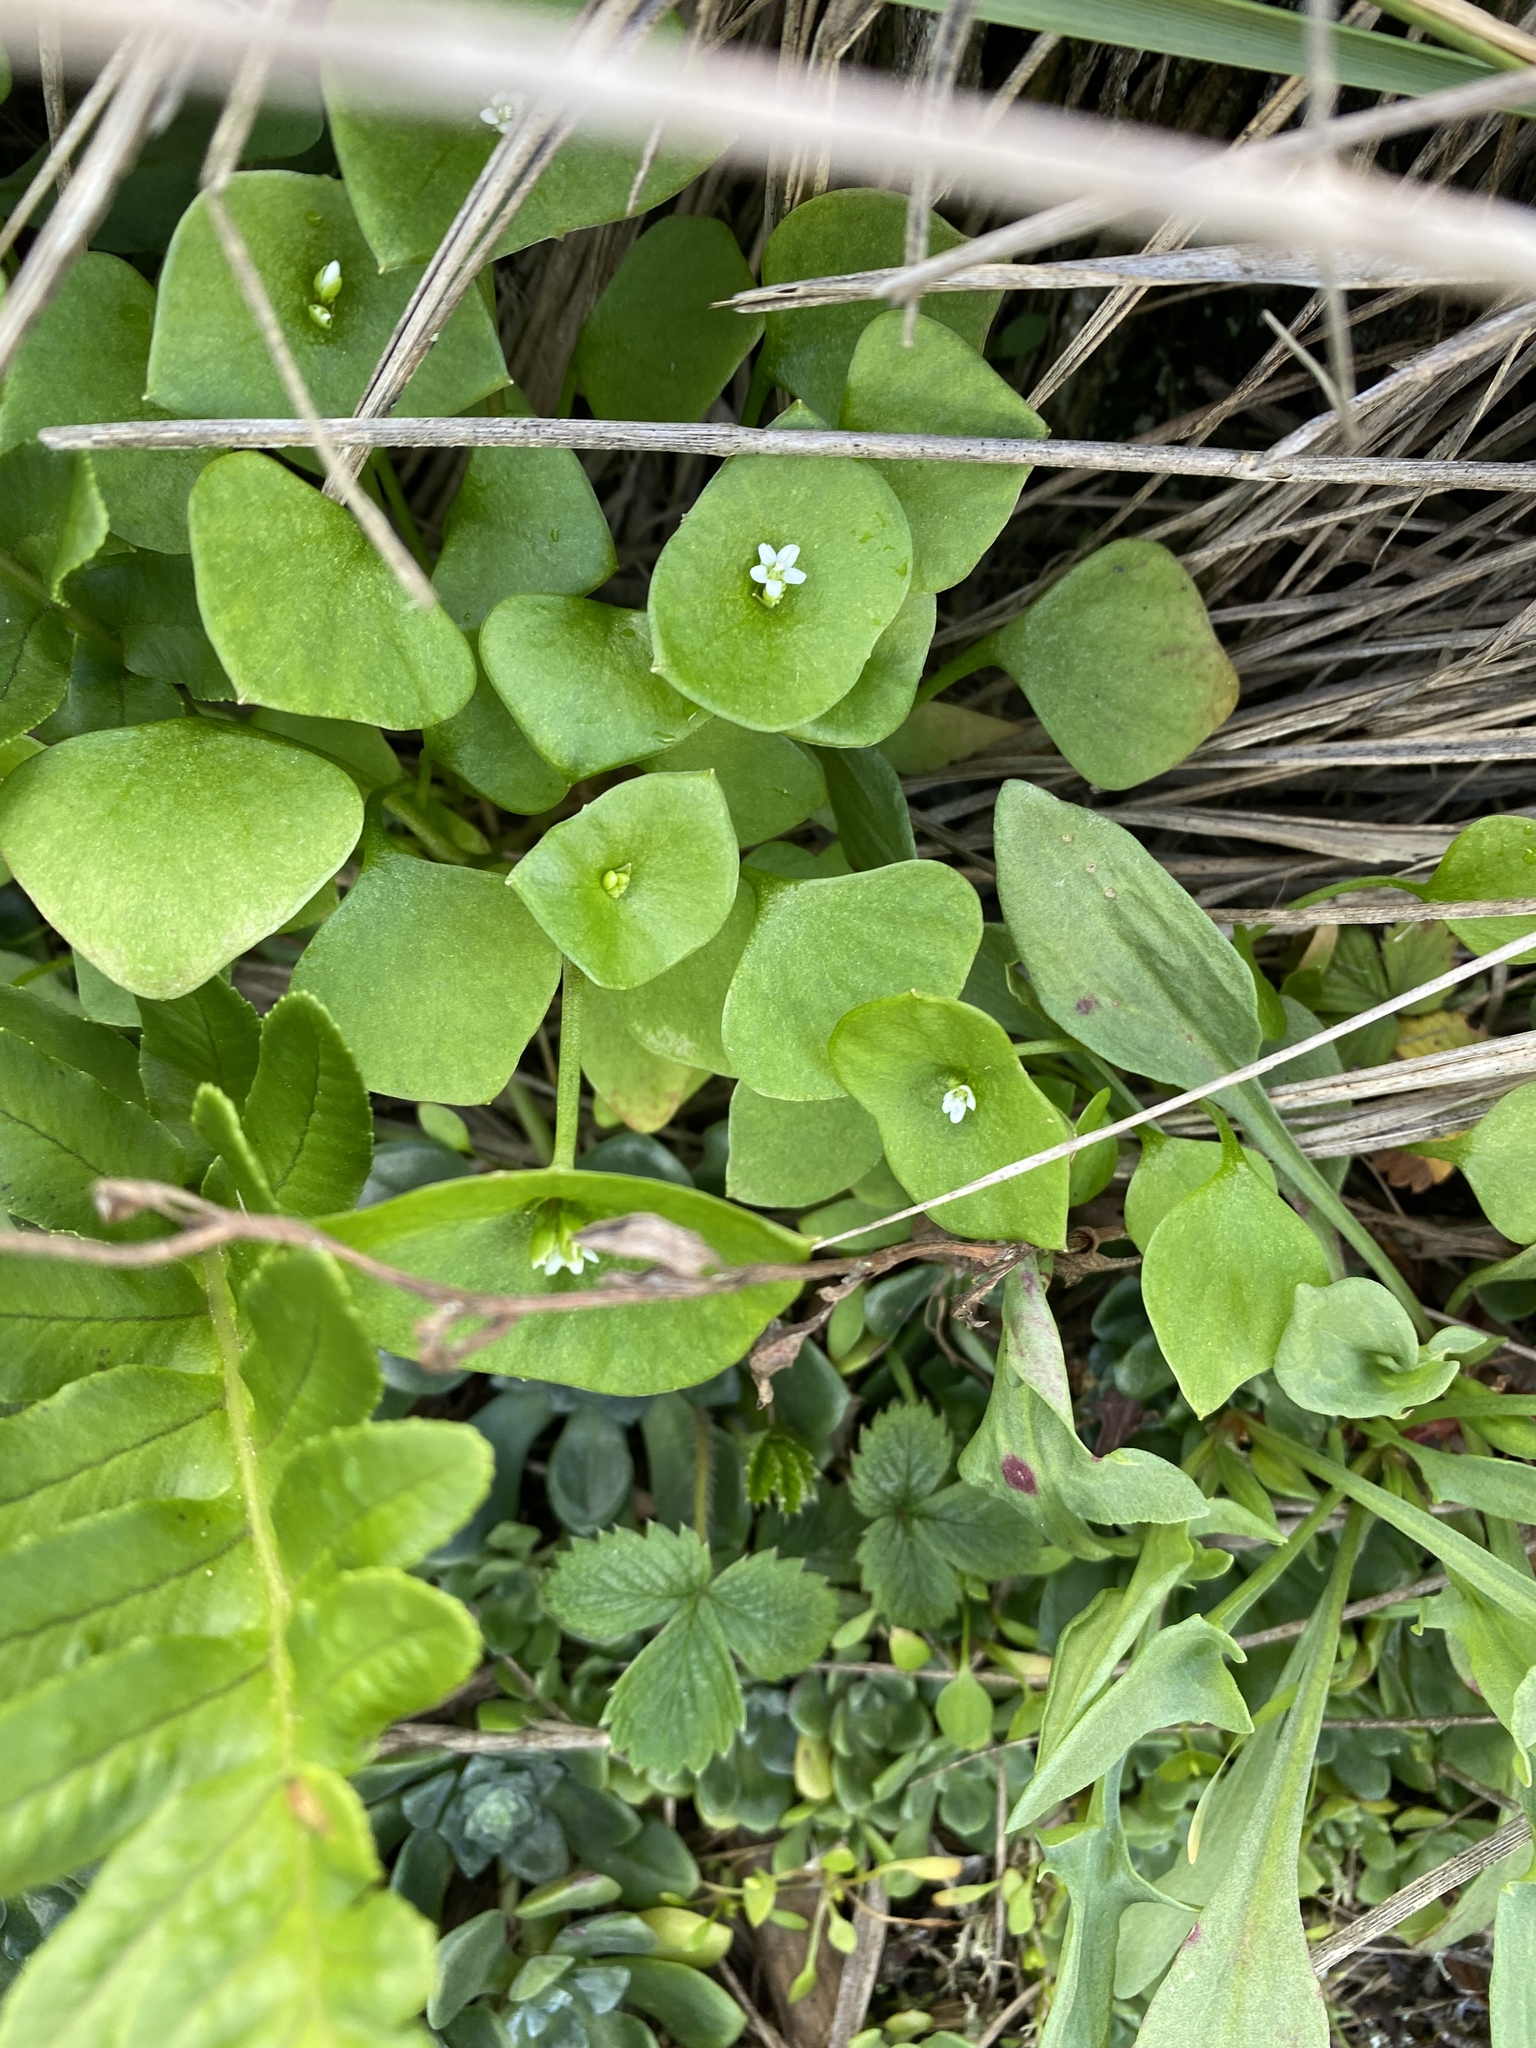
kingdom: Plantae
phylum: Tracheophyta
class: Magnoliopsida
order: Caryophyllales
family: Montiaceae
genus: Claytonia
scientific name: Claytonia perfoliata
